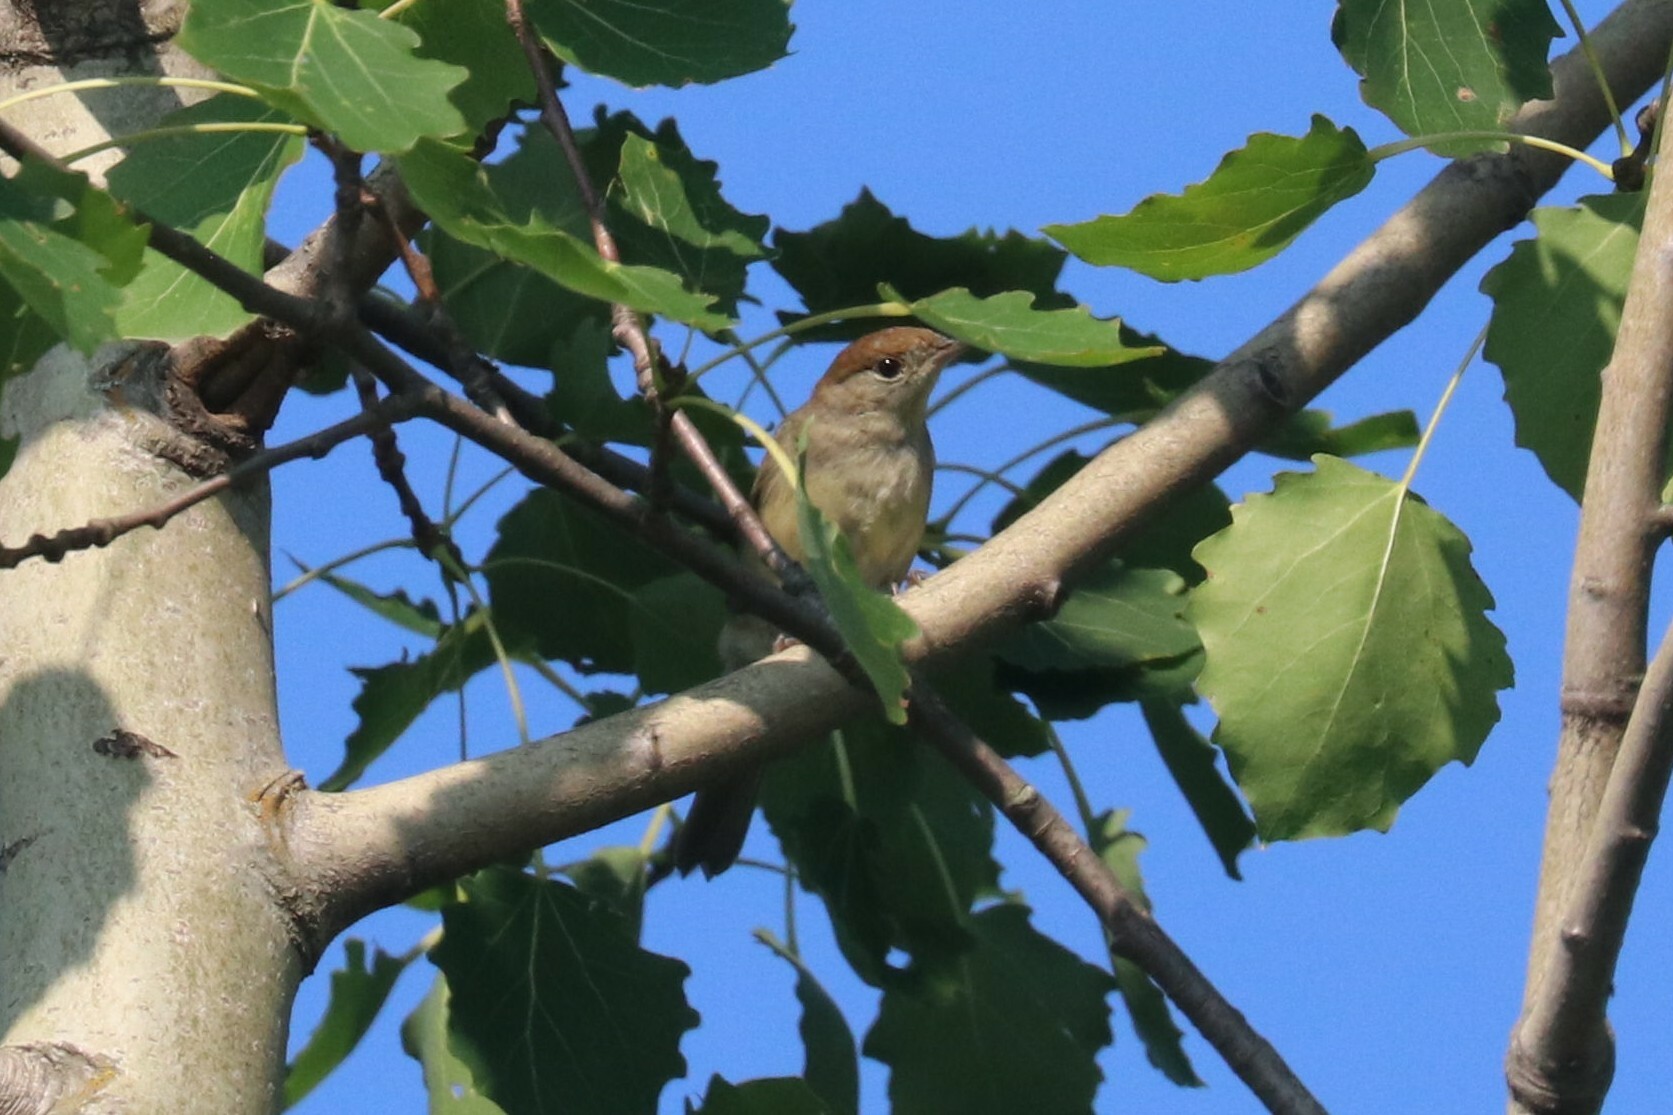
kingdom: Animalia
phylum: Chordata
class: Aves
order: Passeriformes
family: Sylviidae
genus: Sylvia
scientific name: Sylvia atricapilla
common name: Eurasian blackcap
